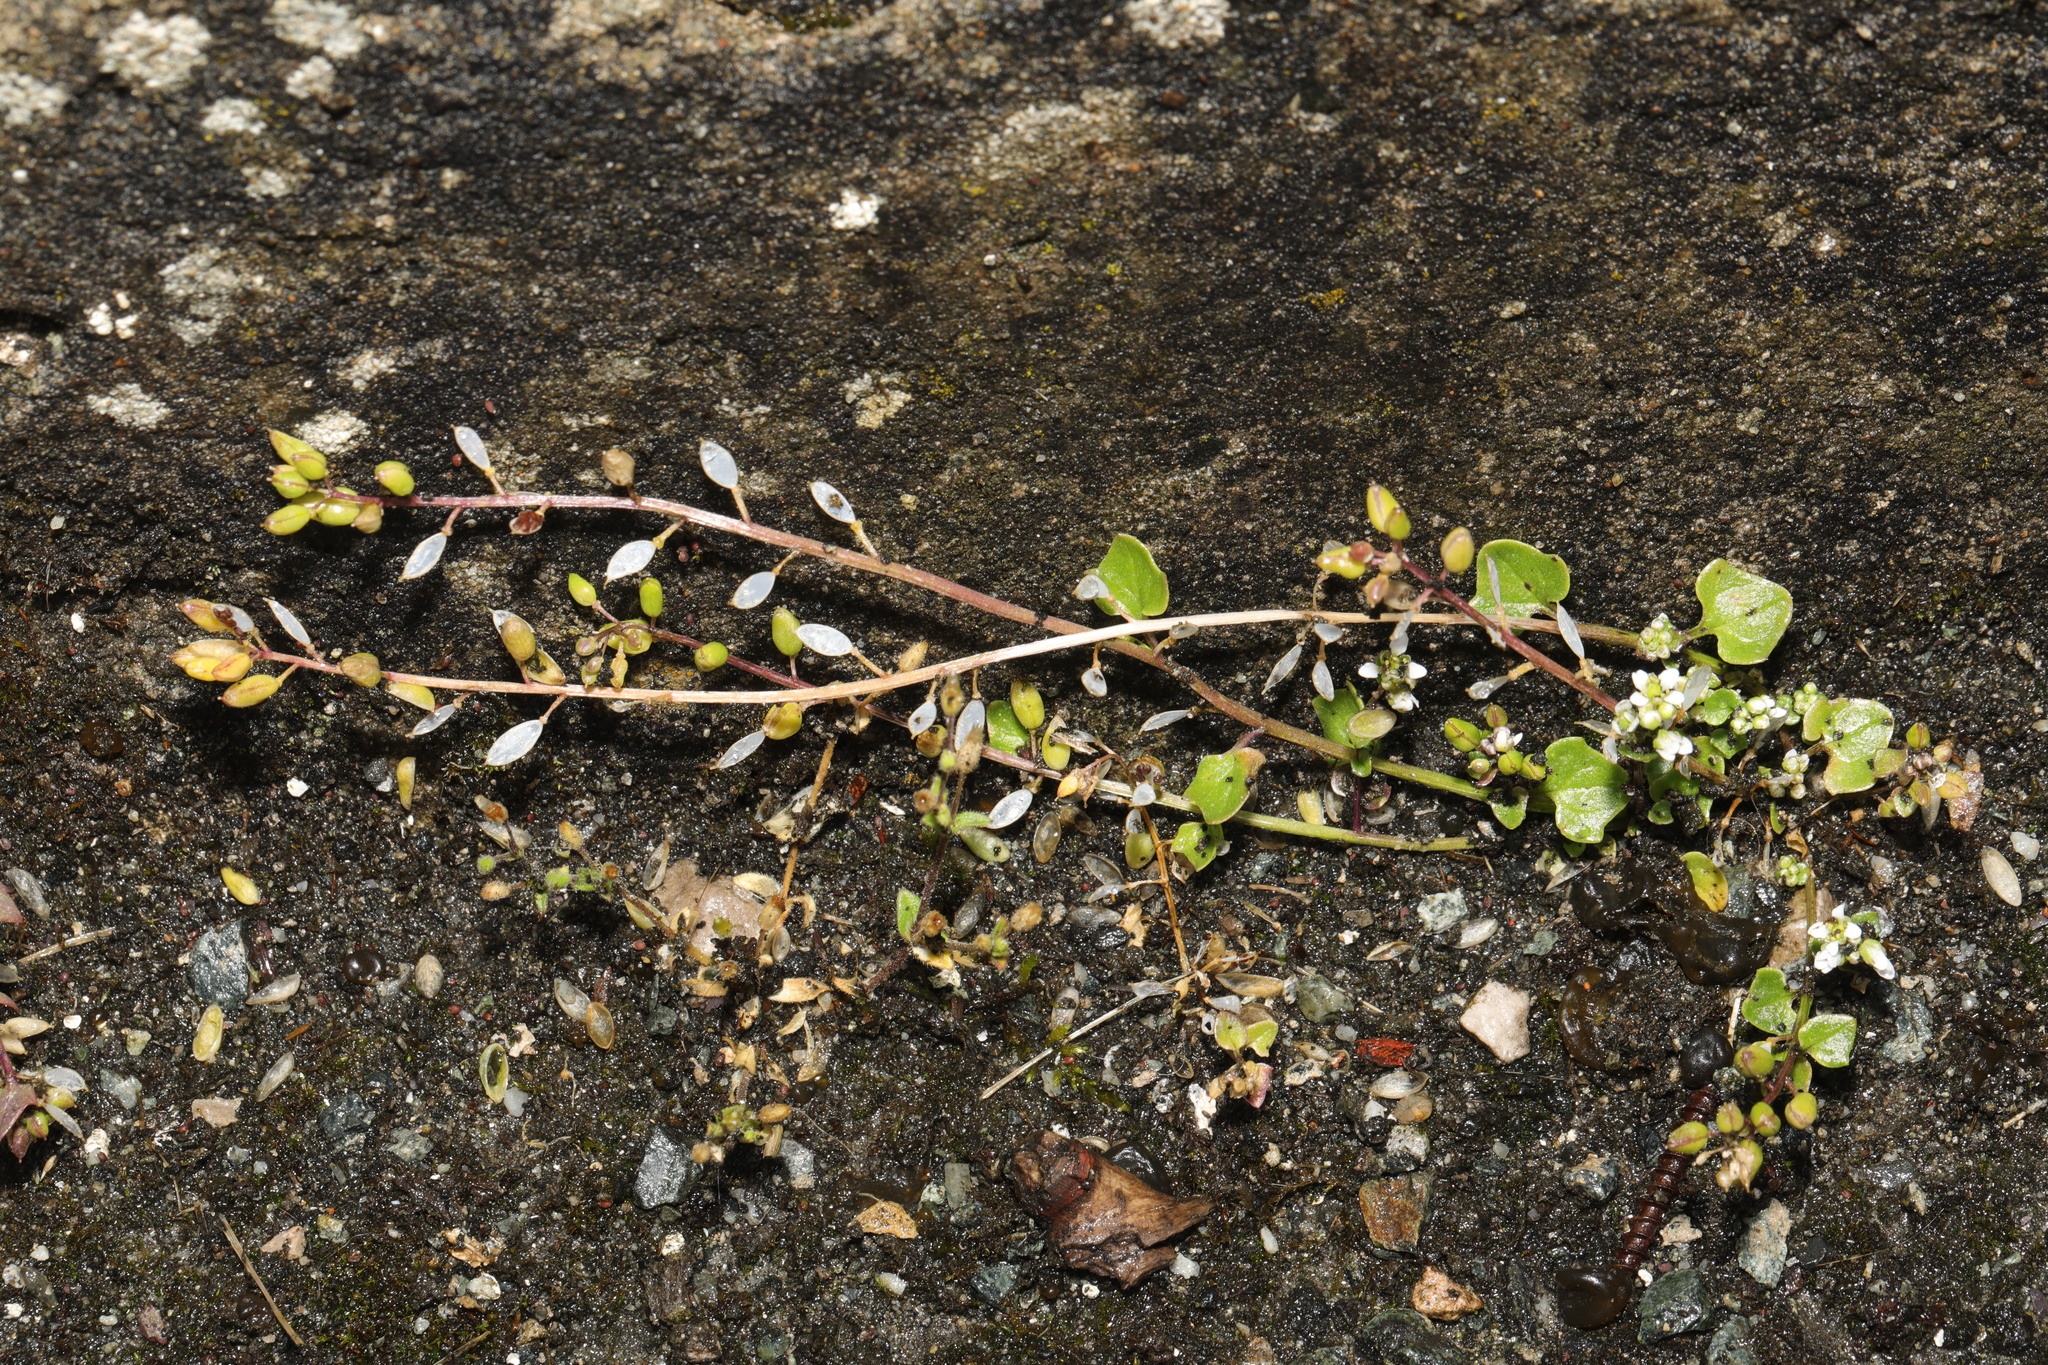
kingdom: Plantae
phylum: Tracheophyta
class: Magnoliopsida
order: Brassicales
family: Brassicaceae
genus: Cochlearia
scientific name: Cochlearia danica
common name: Early scurvygrass
